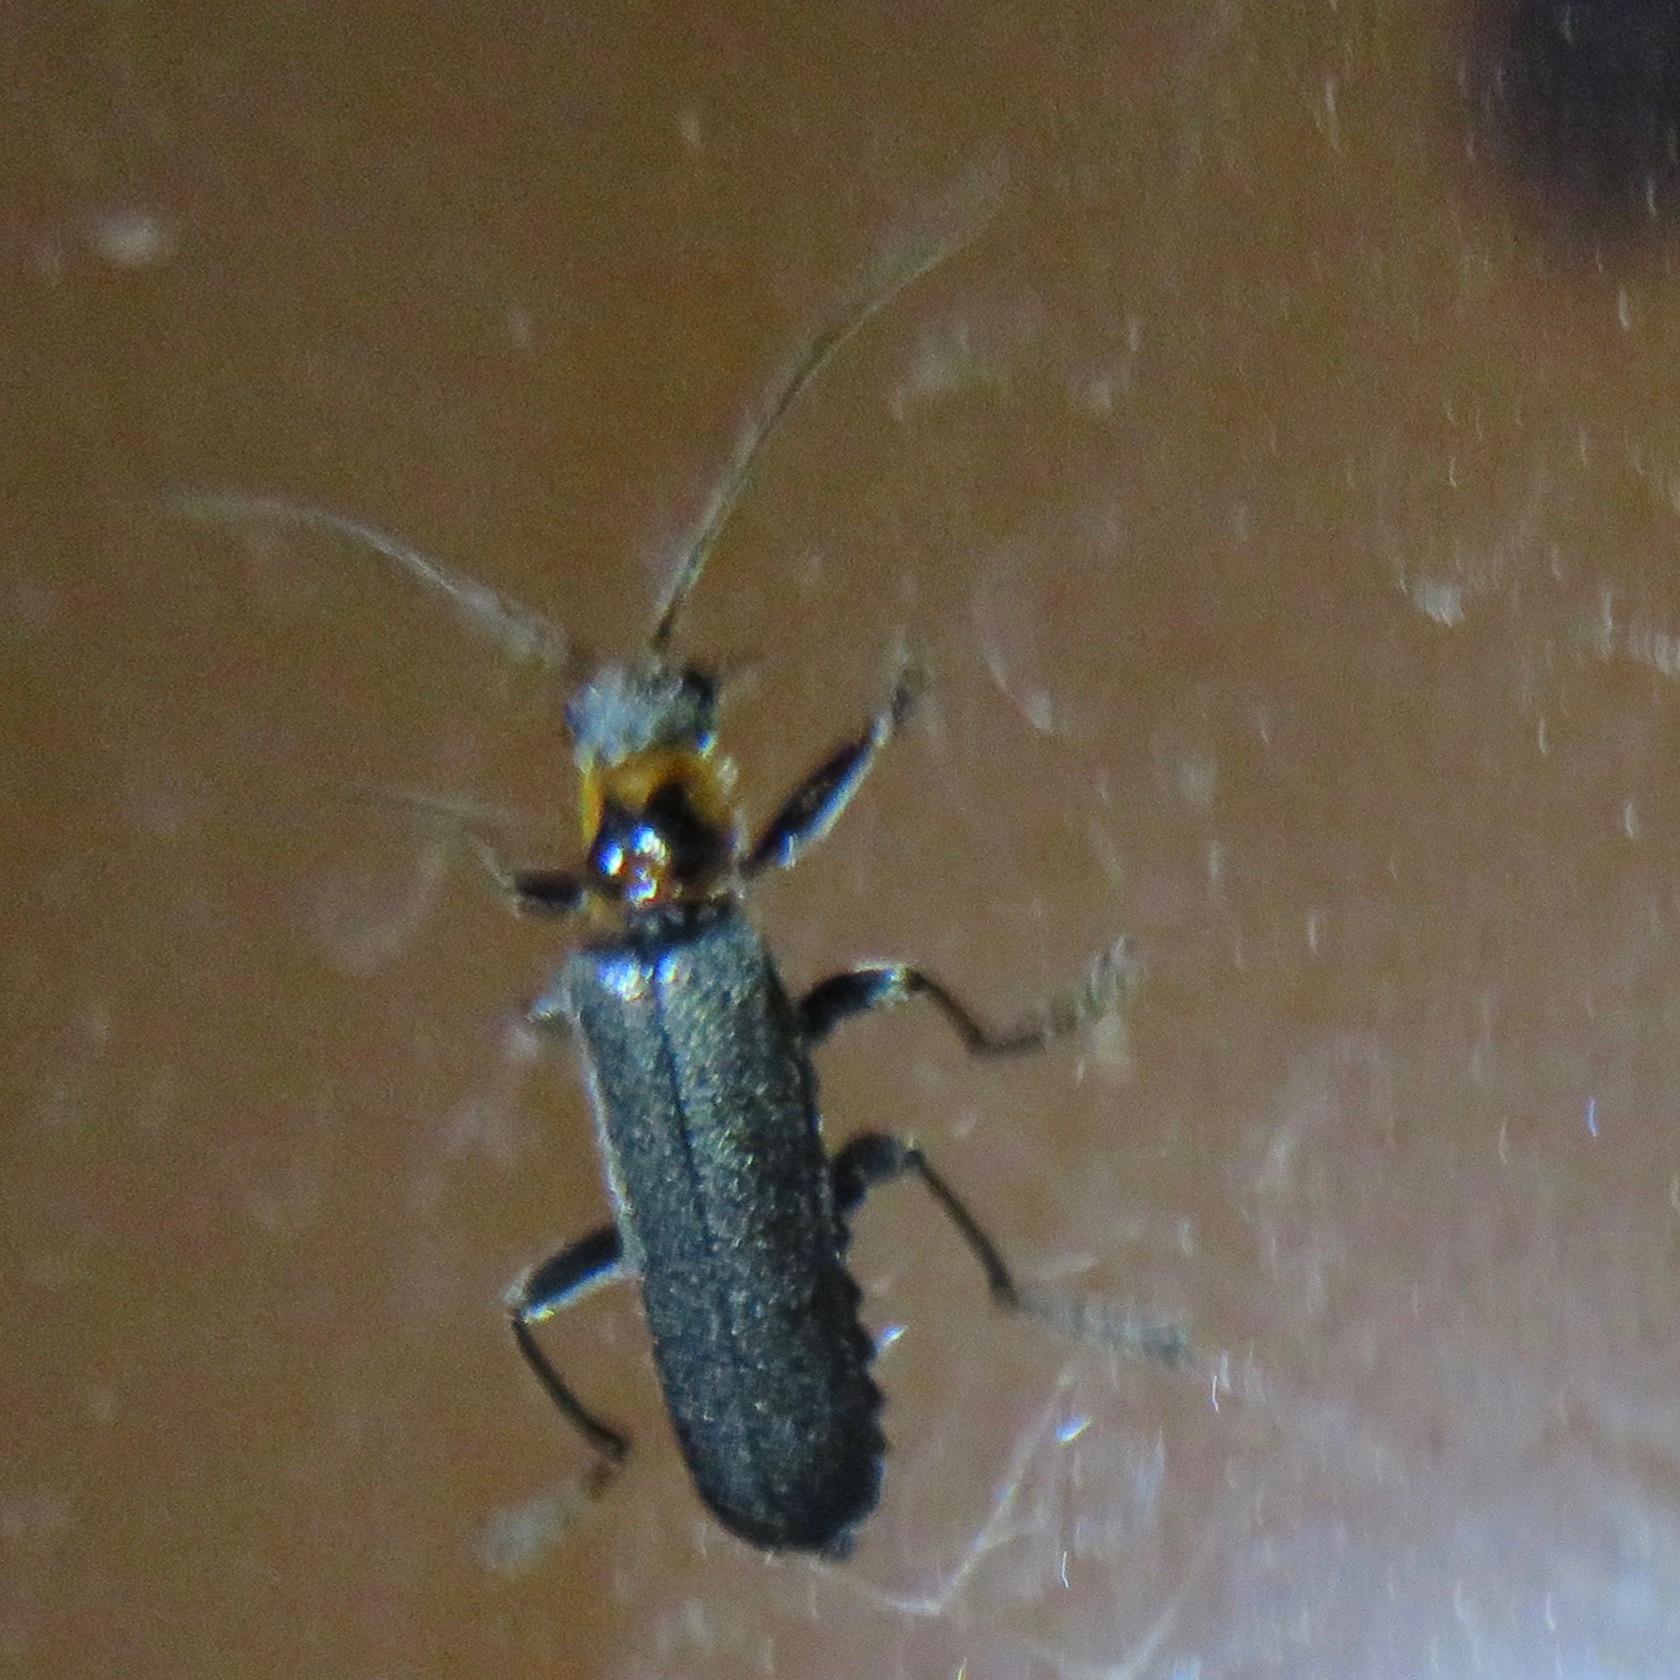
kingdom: Animalia
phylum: Arthropoda
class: Insecta
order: Coleoptera
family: Cantharidae
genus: Cyrtomoptera
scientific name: Cyrtomoptera divisa
